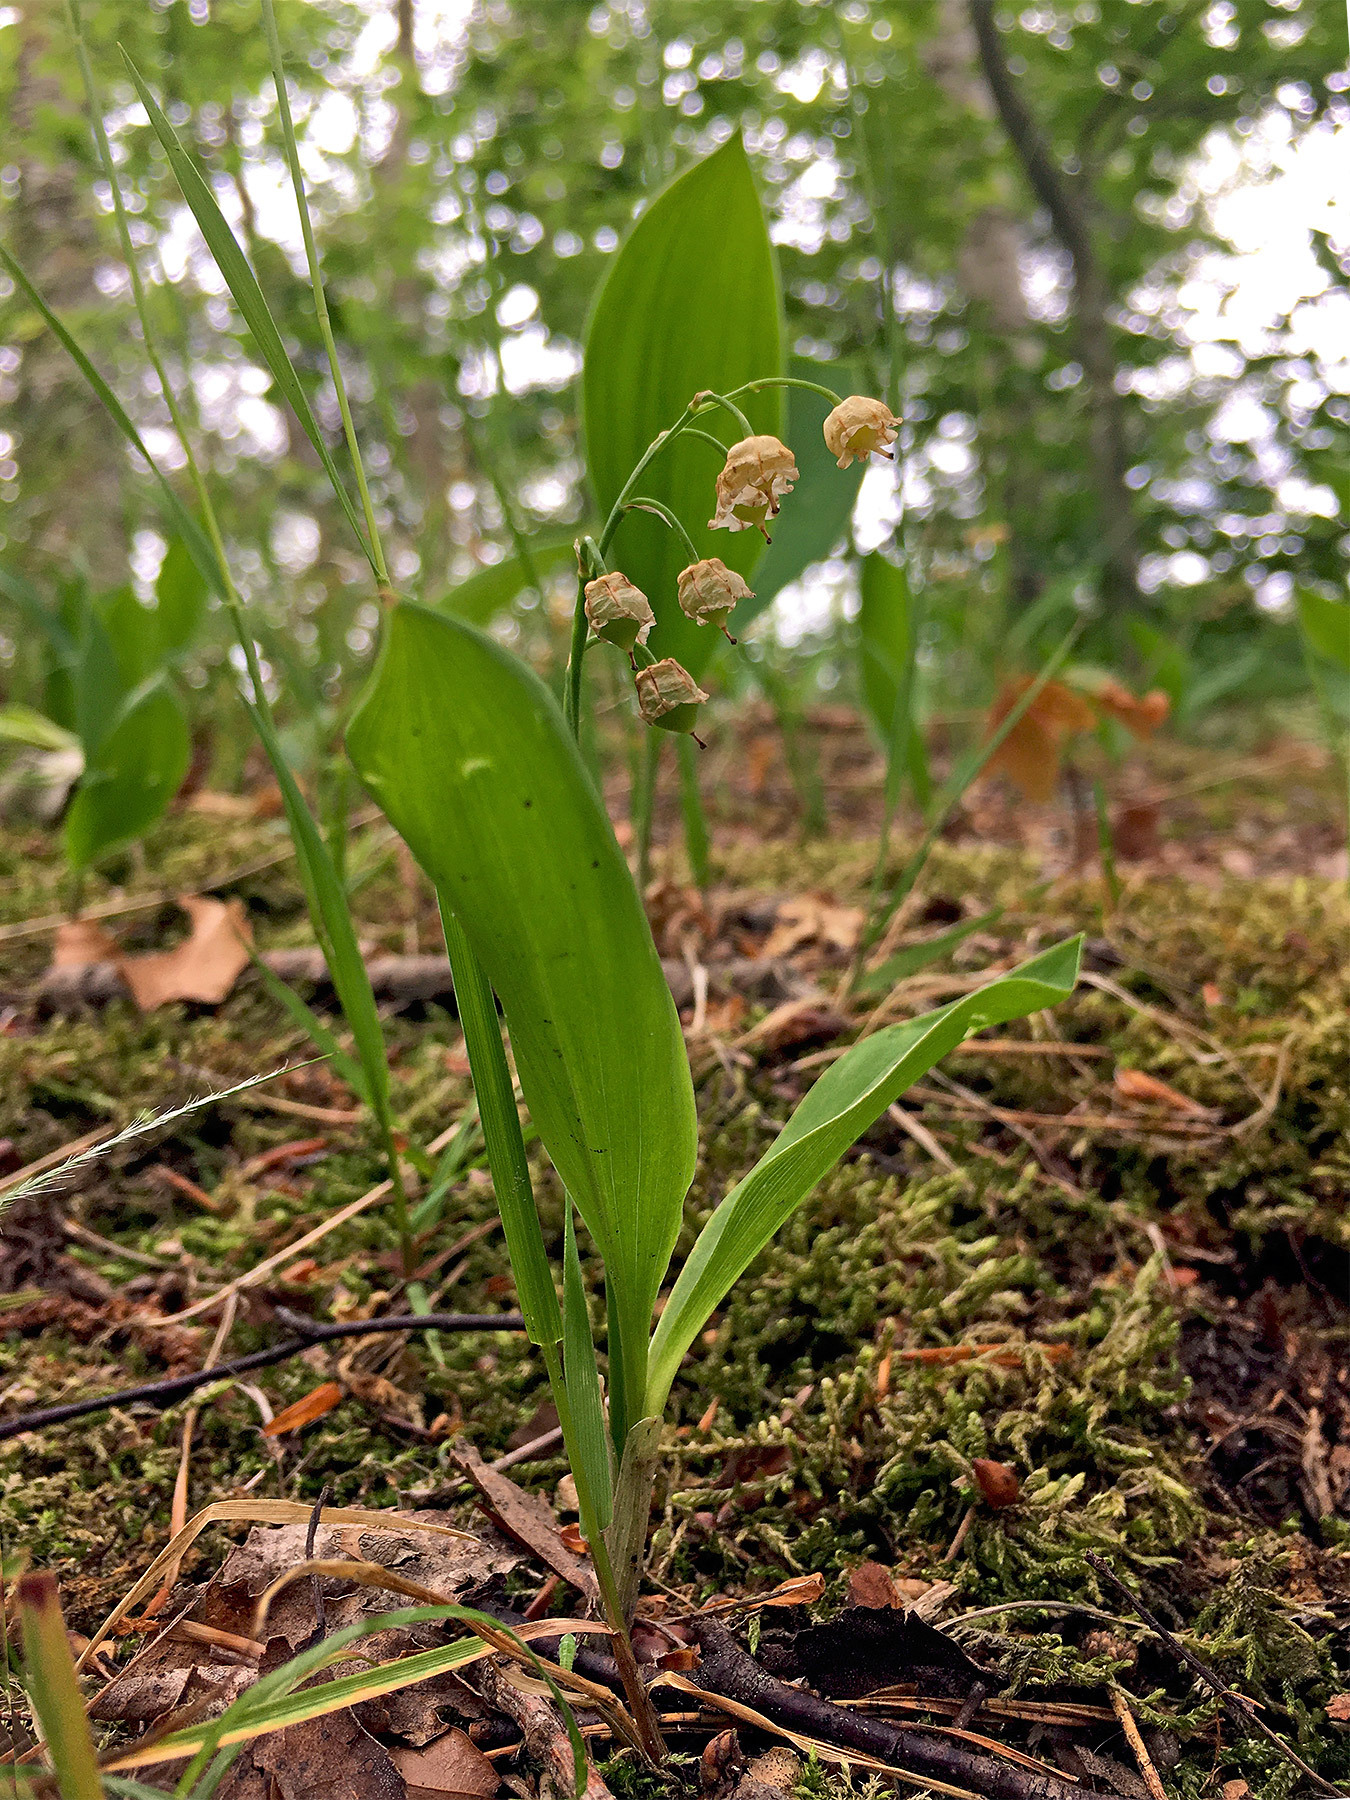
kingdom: Plantae
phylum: Tracheophyta
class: Liliopsida
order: Asparagales
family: Asparagaceae
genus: Convallaria
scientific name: Convallaria majalis
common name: Lily-of-the-valley
